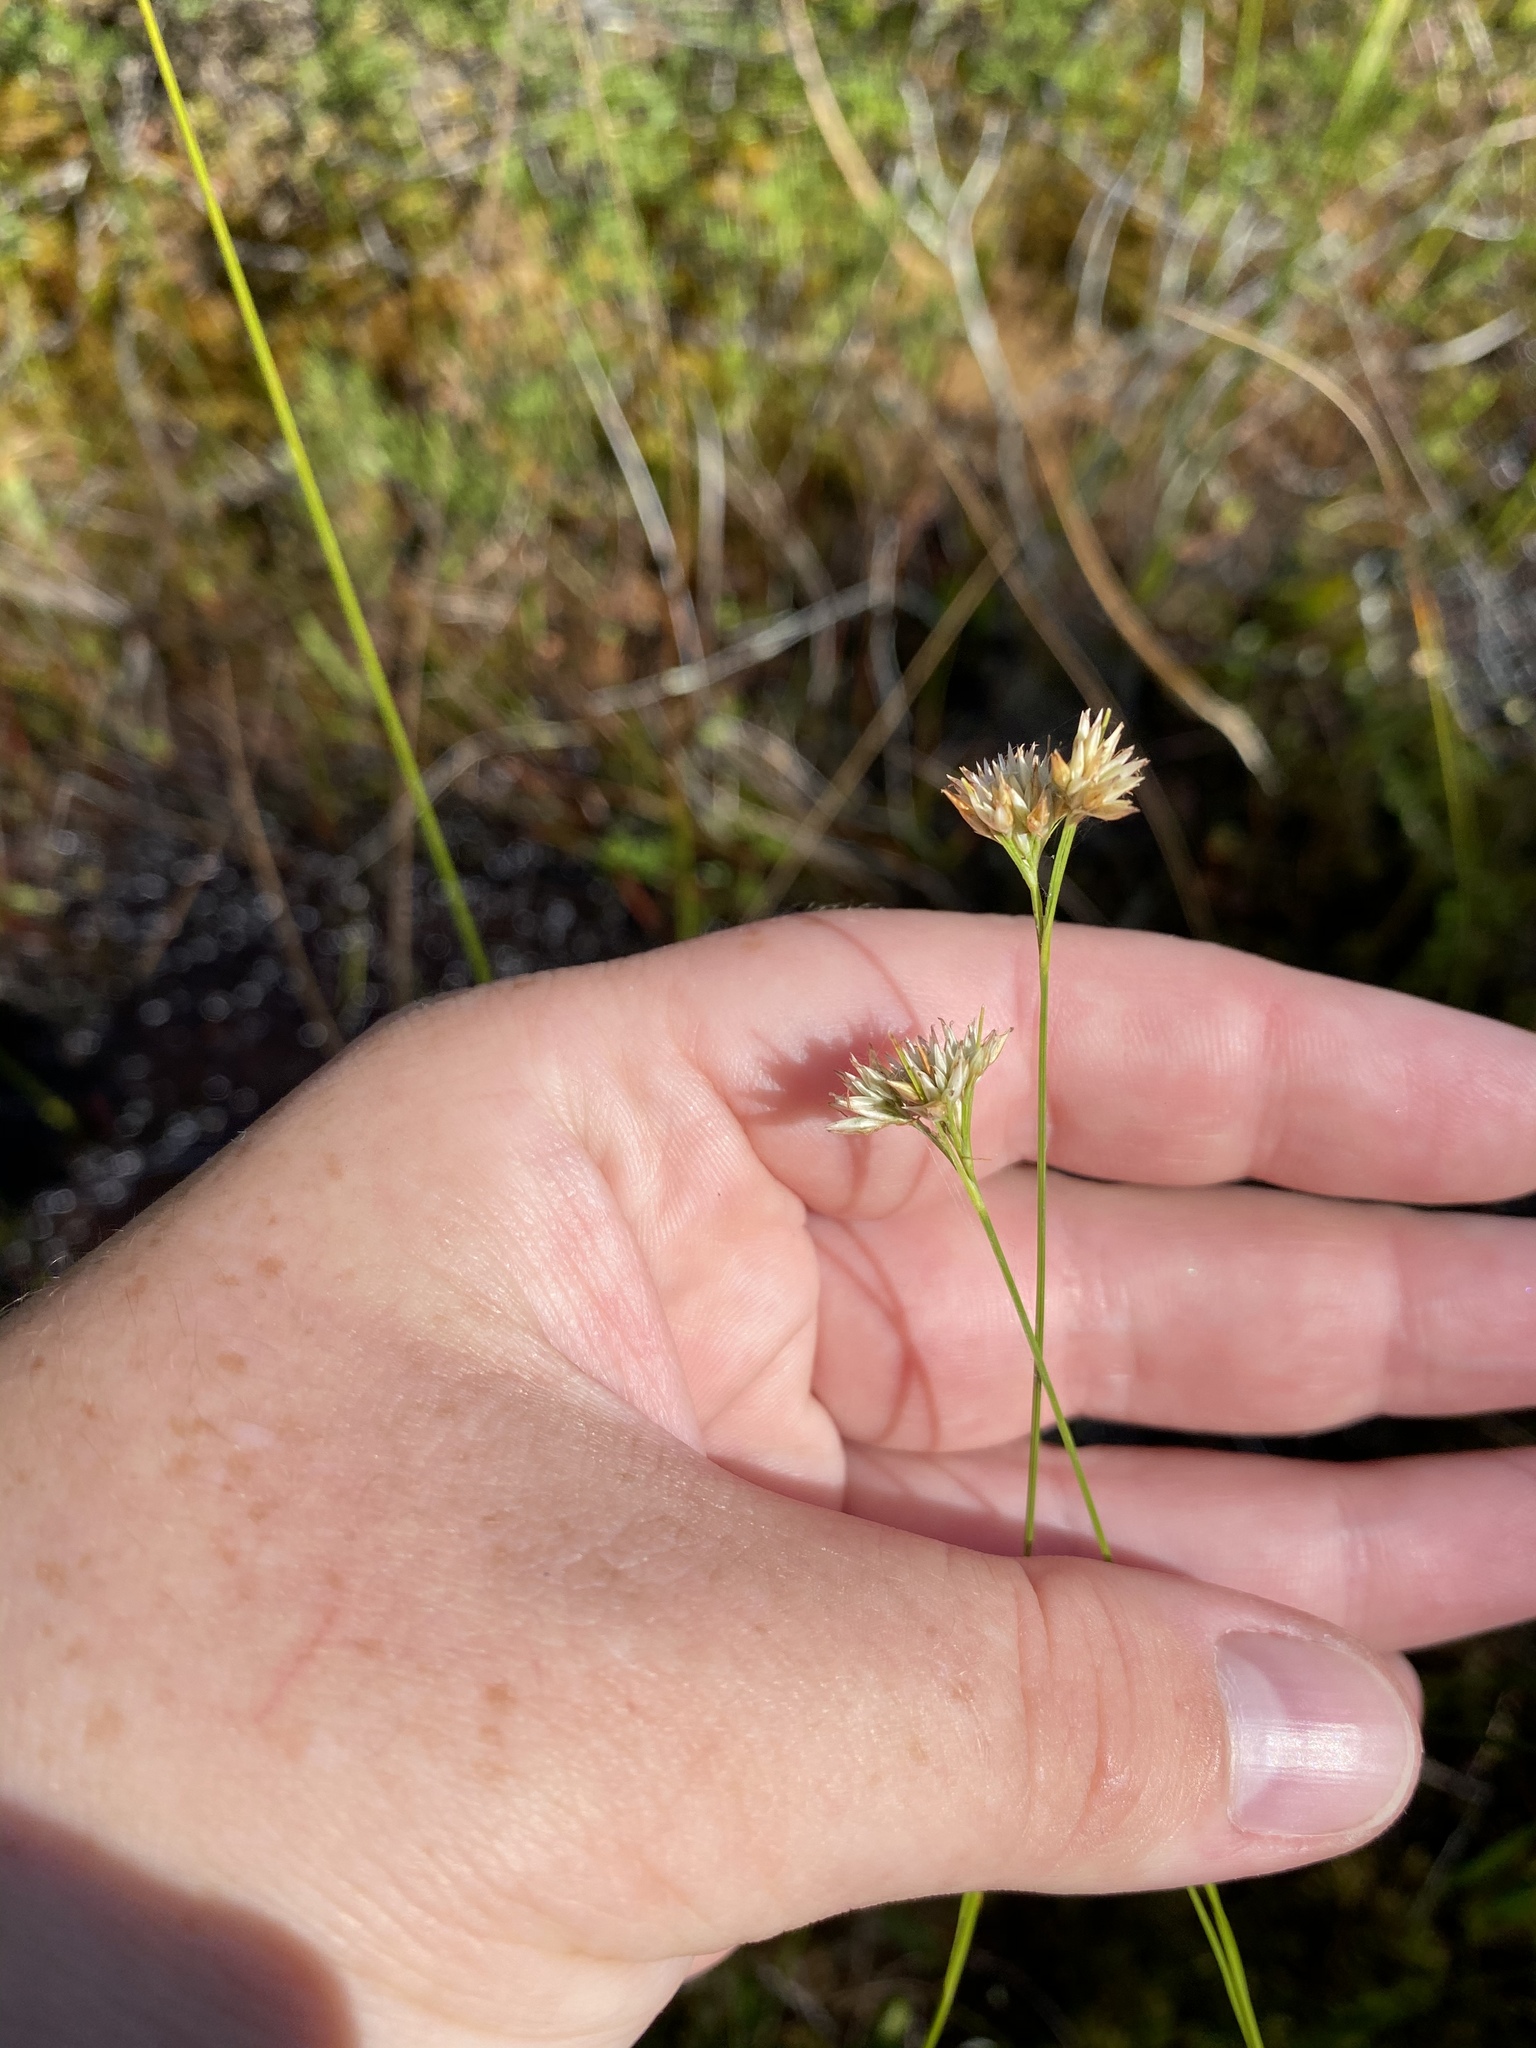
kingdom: Plantae
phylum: Tracheophyta
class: Liliopsida
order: Poales
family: Cyperaceae
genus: Rhynchospora
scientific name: Rhynchospora alba
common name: White beak-sedge
